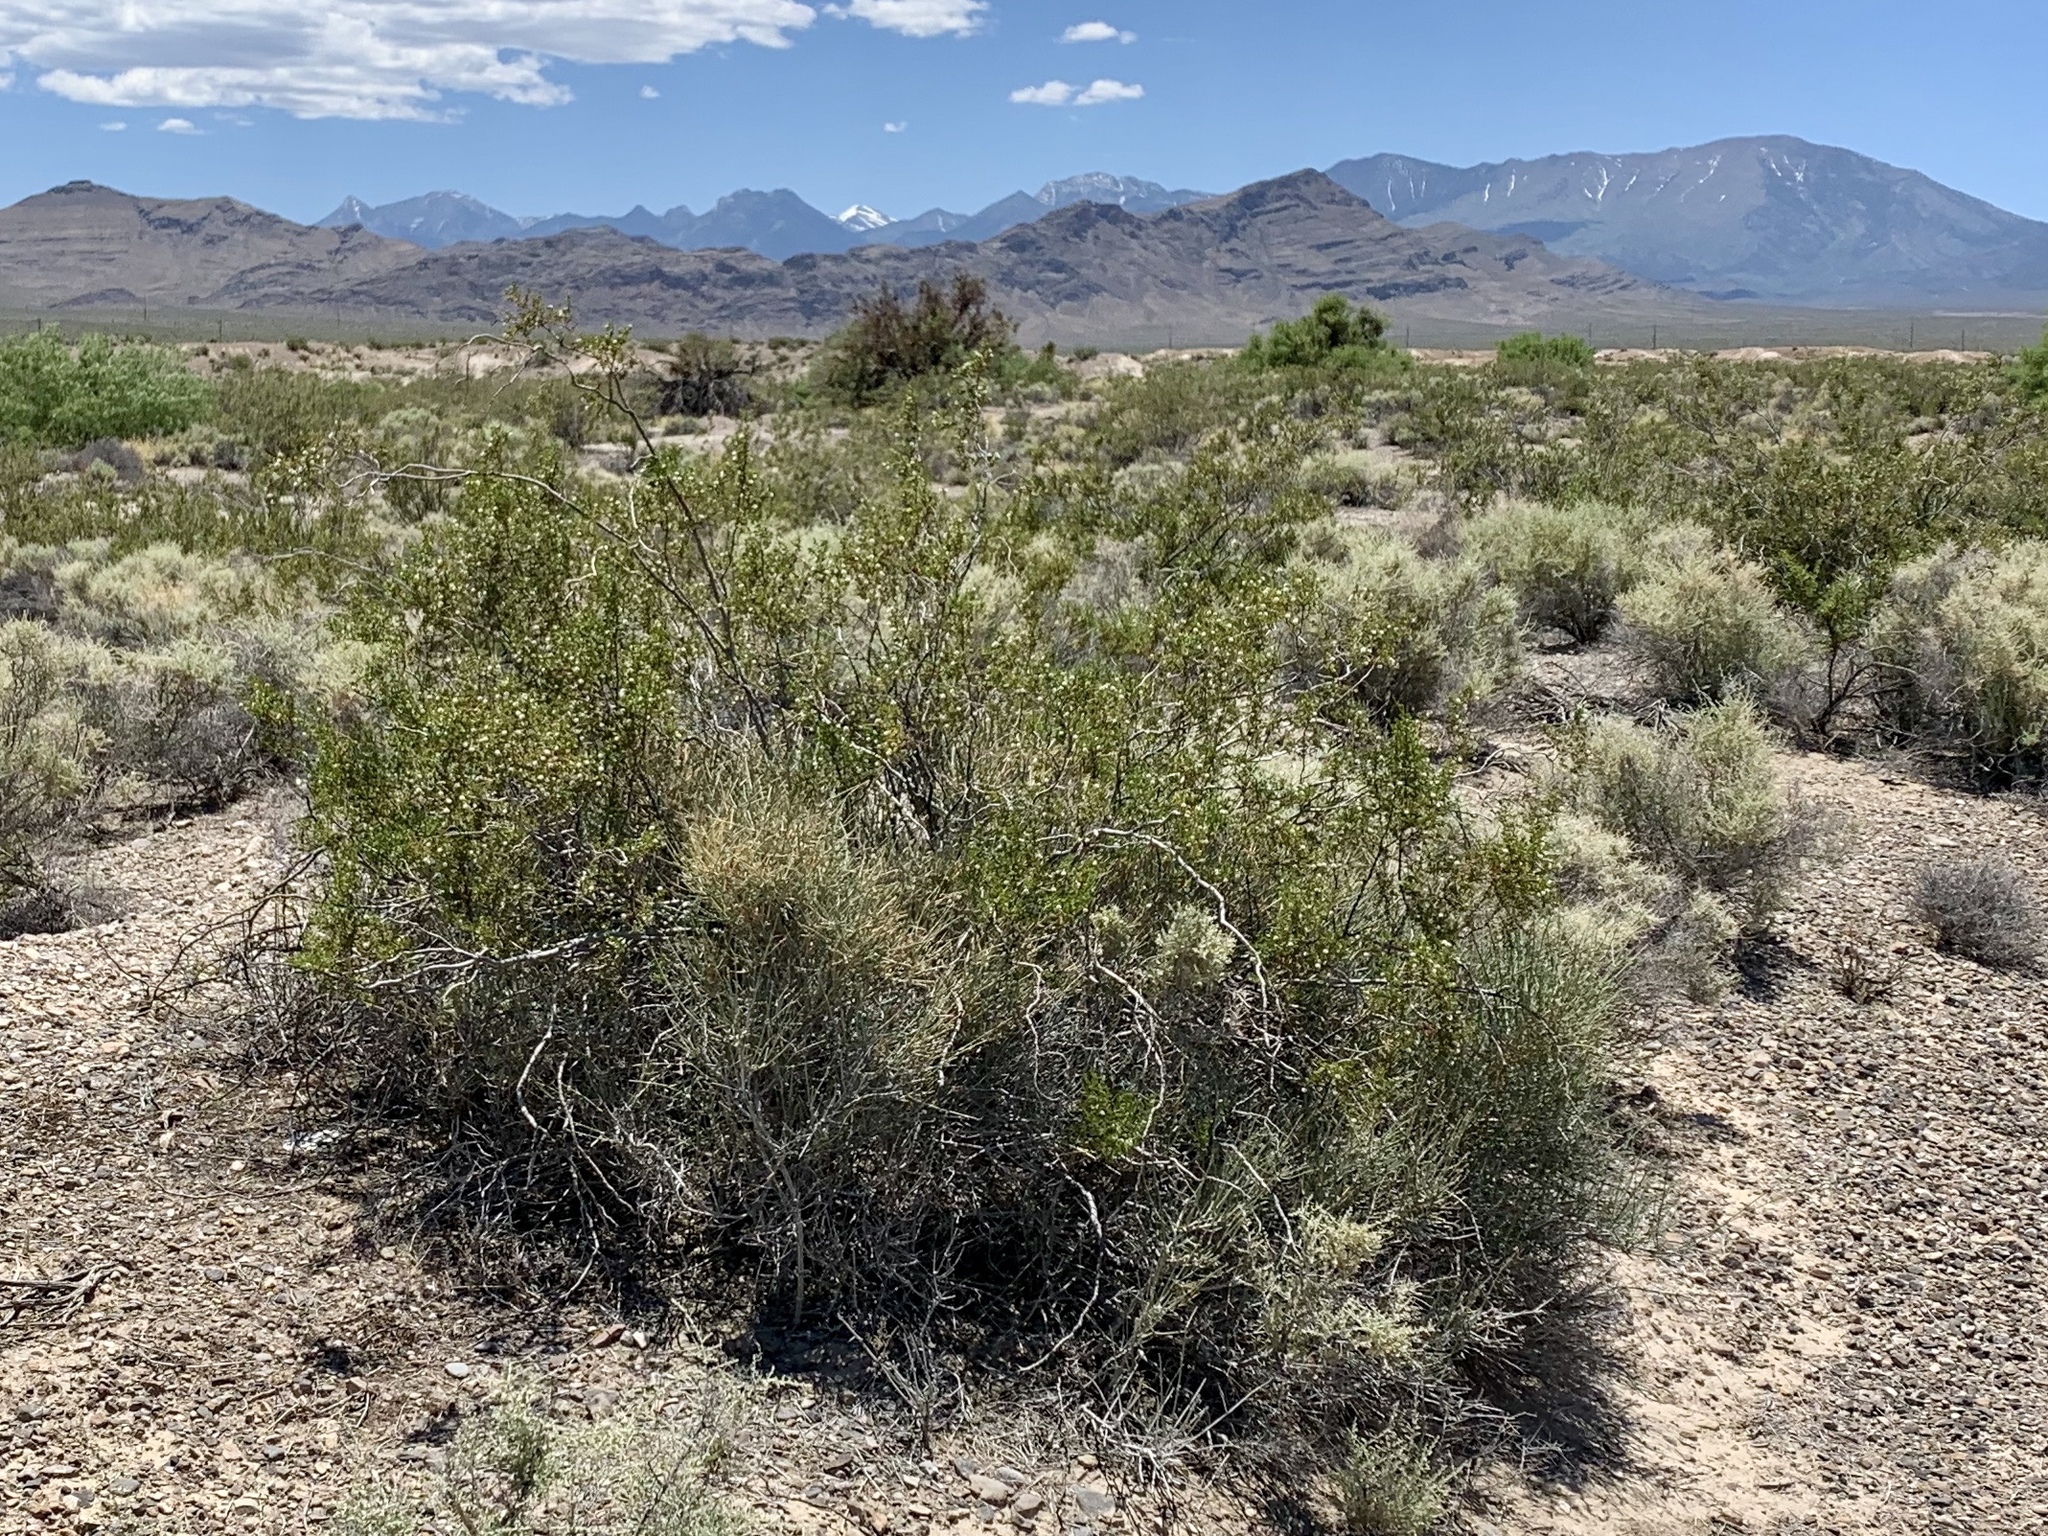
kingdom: Plantae
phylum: Tracheophyta
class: Magnoliopsida
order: Zygophyllales
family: Zygophyllaceae
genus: Larrea
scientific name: Larrea tridentata
